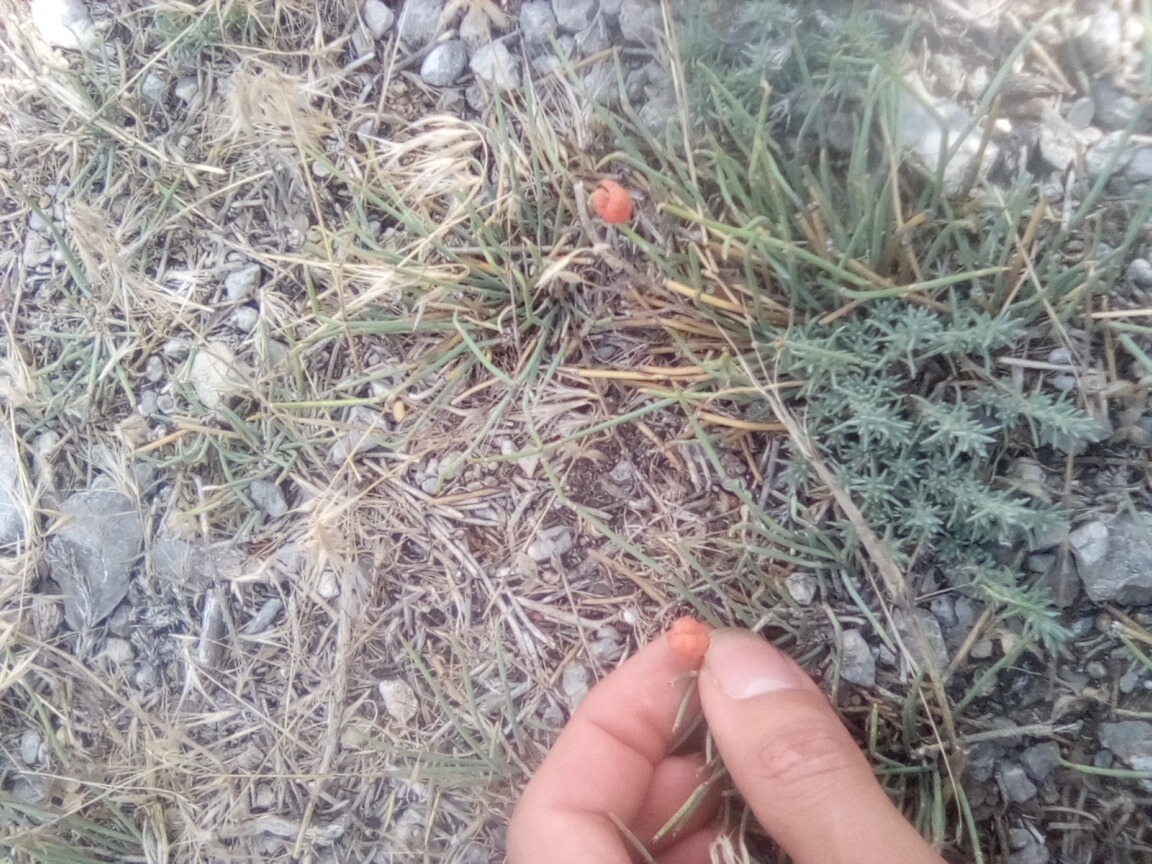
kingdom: Plantae
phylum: Tracheophyta
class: Gnetopsida
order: Ephedrales
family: Ephedraceae
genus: Ephedra
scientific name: Ephedra distachya
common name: Sea grape
